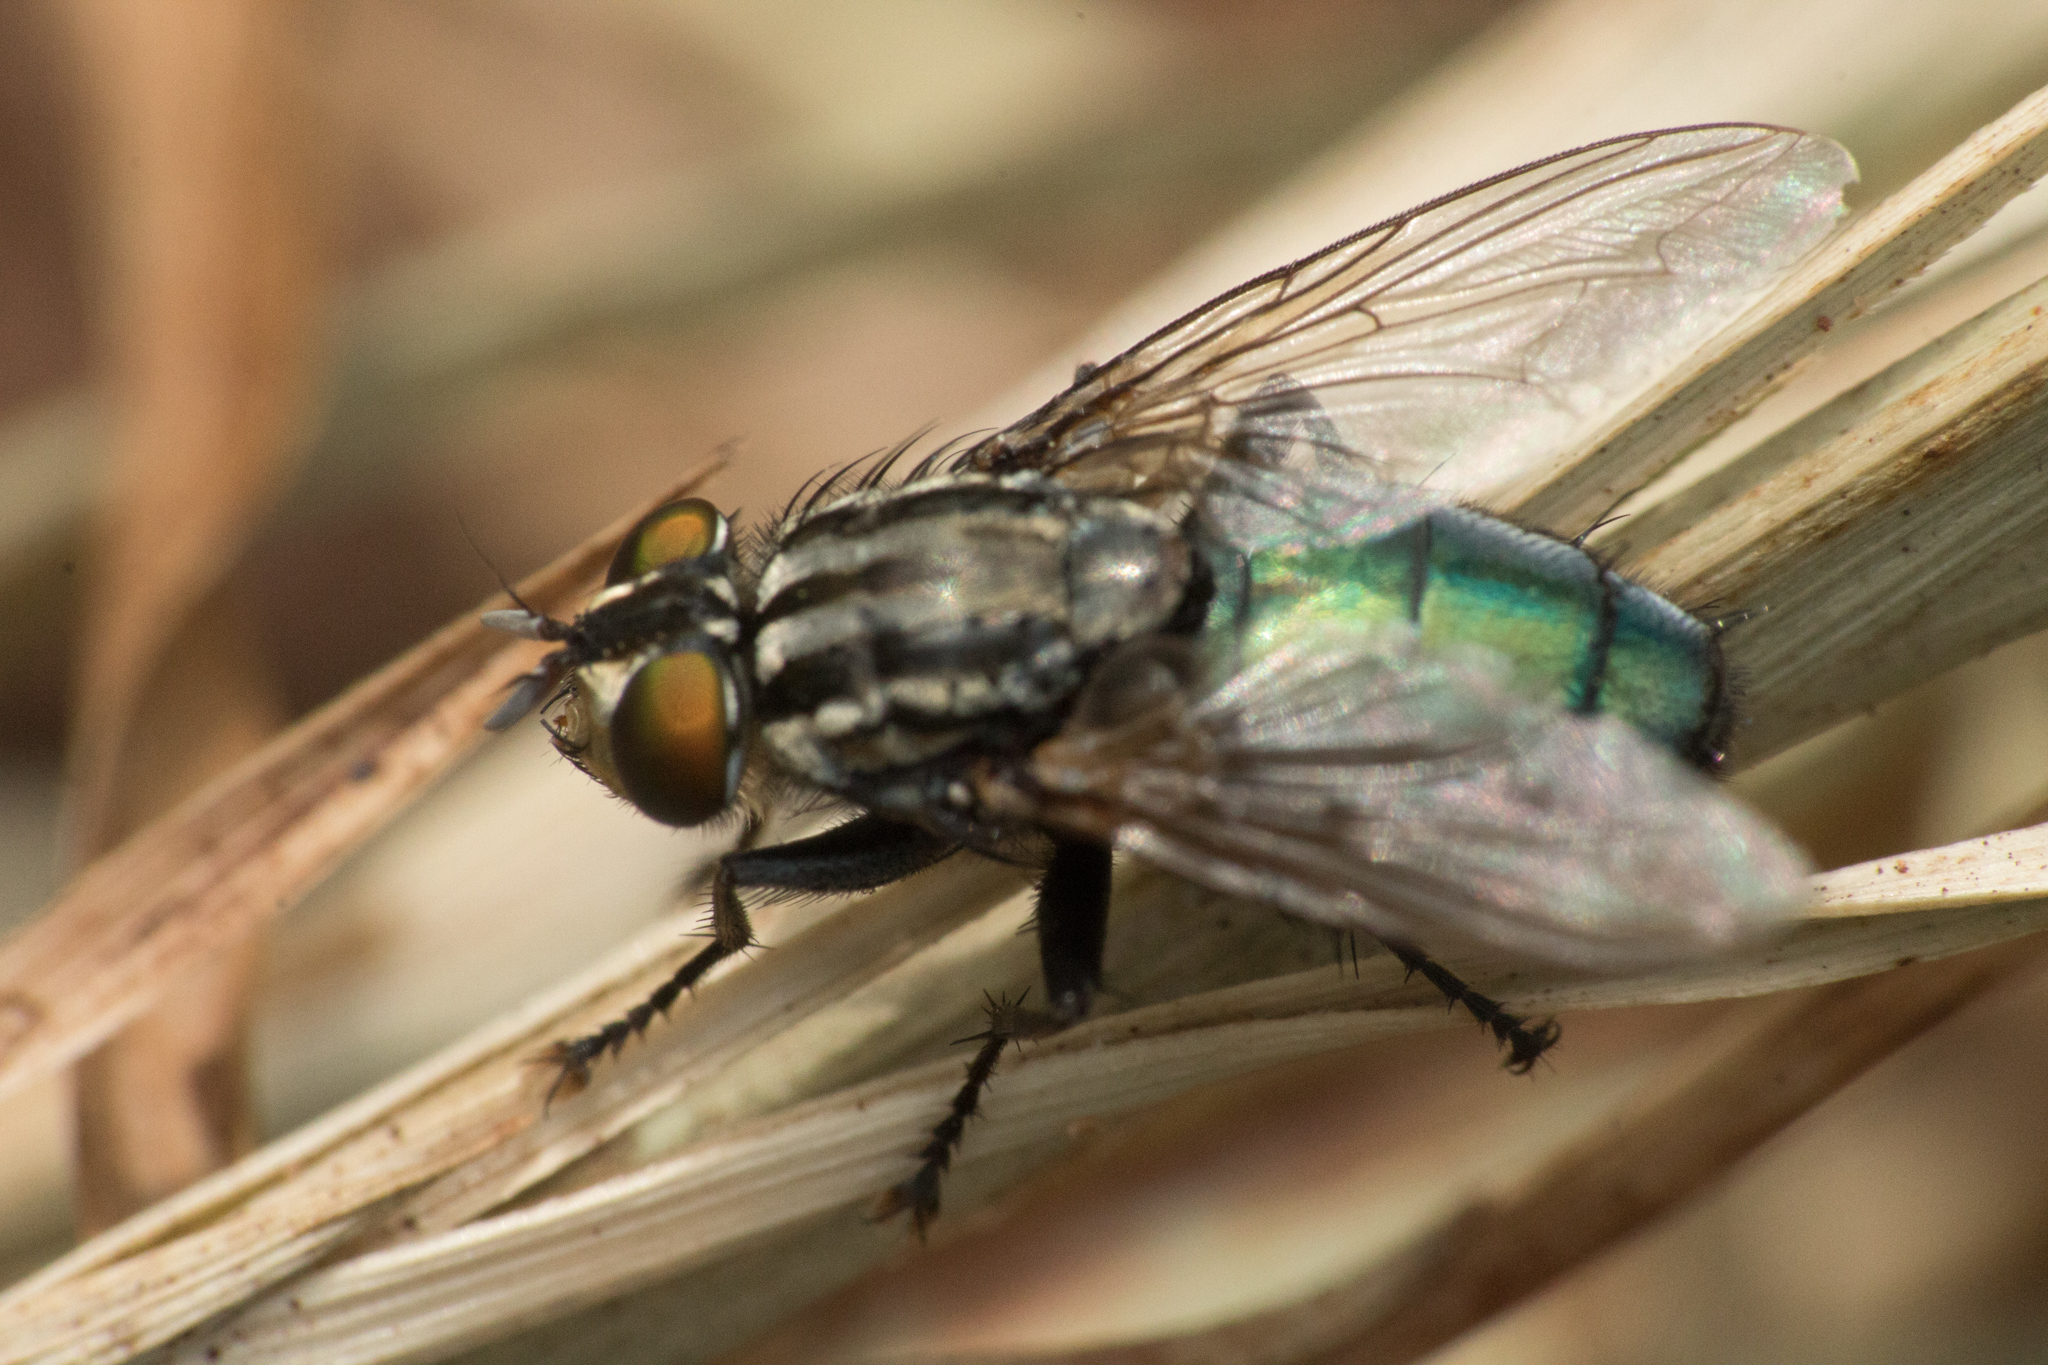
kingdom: Animalia
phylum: Arthropoda
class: Insecta
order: Diptera
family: Calliphoridae
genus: Sarconesia
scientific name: Sarconesia chlorogaster
